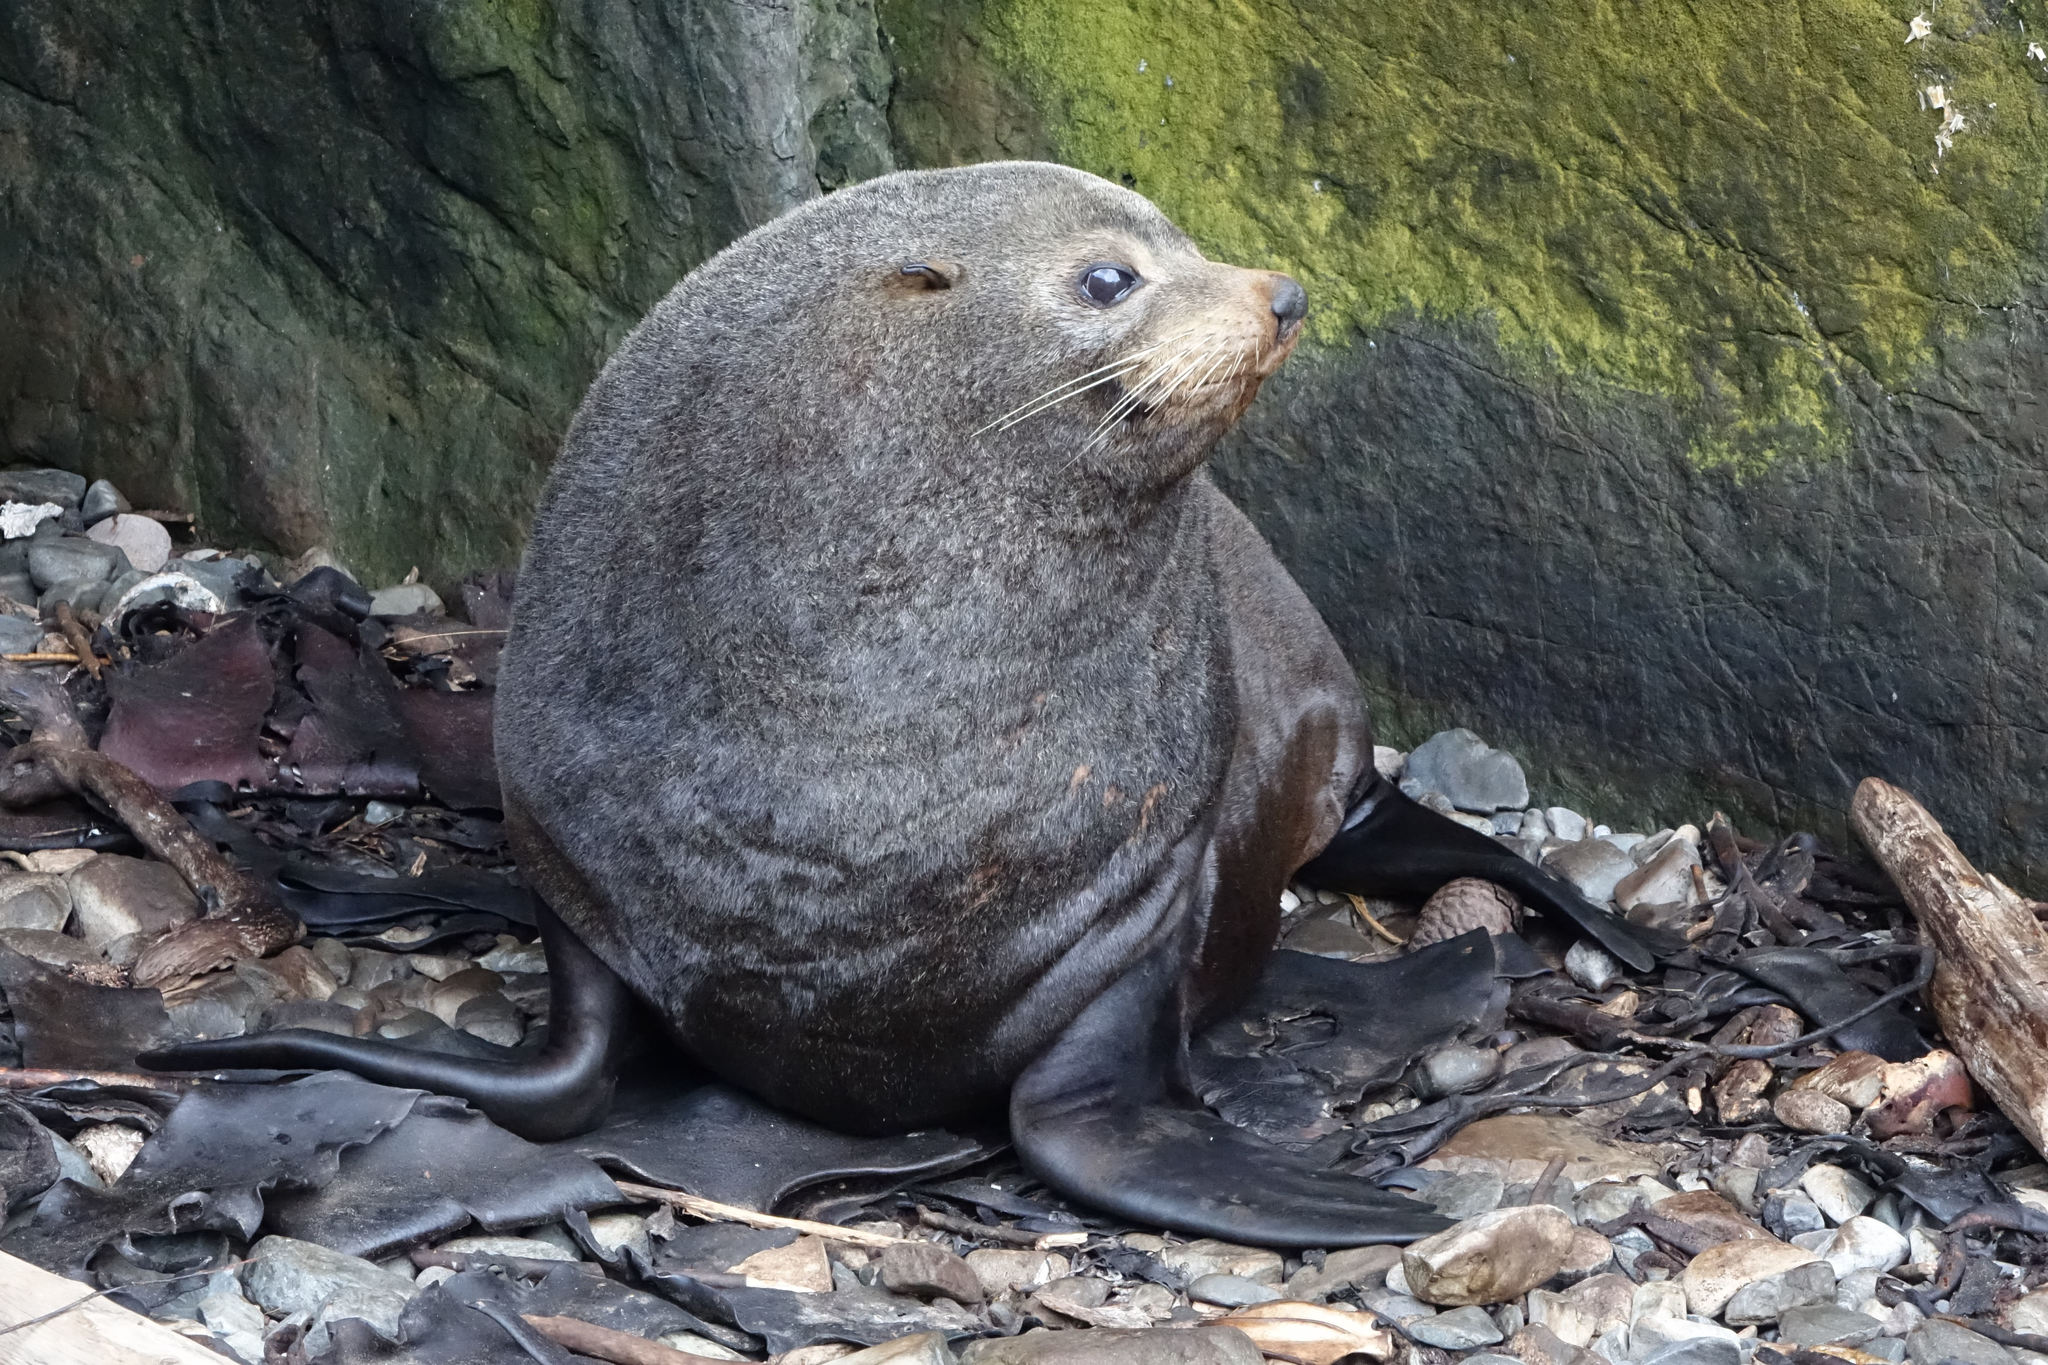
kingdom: Animalia
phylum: Chordata
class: Mammalia
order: Carnivora
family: Otariidae
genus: Arctocephalus
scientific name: Arctocephalus forsteri
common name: New zealand fur seal
